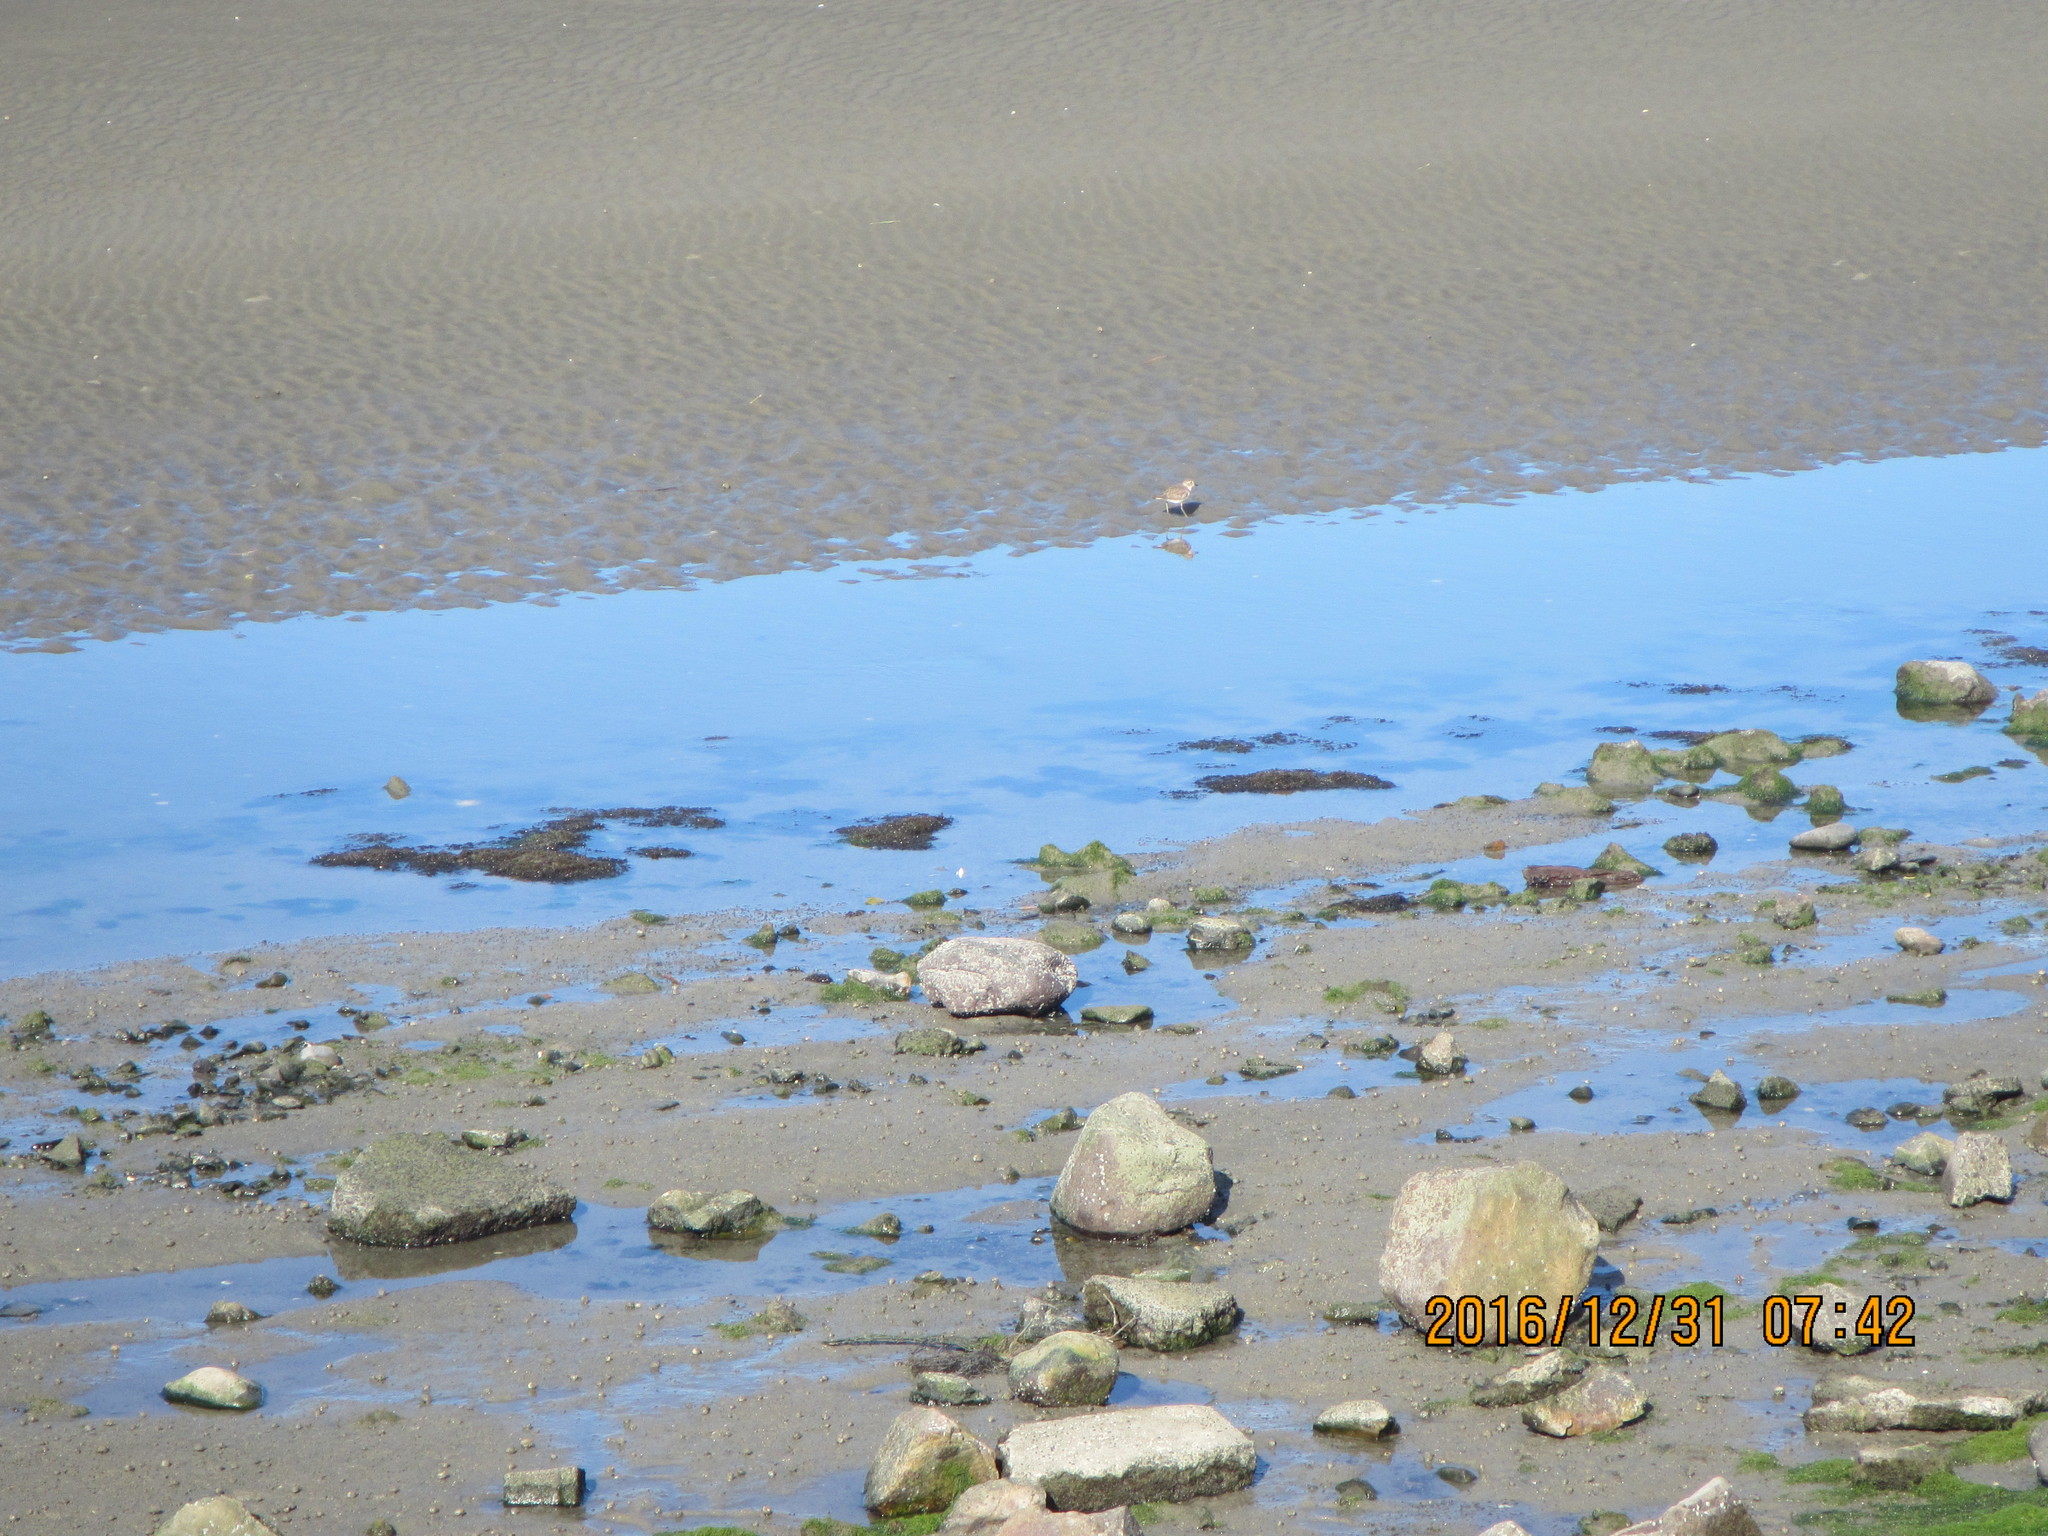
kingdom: Animalia
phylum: Chordata
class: Aves
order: Charadriiformes
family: Charadriidae
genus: Anarhynchus
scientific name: Anarhynchus
